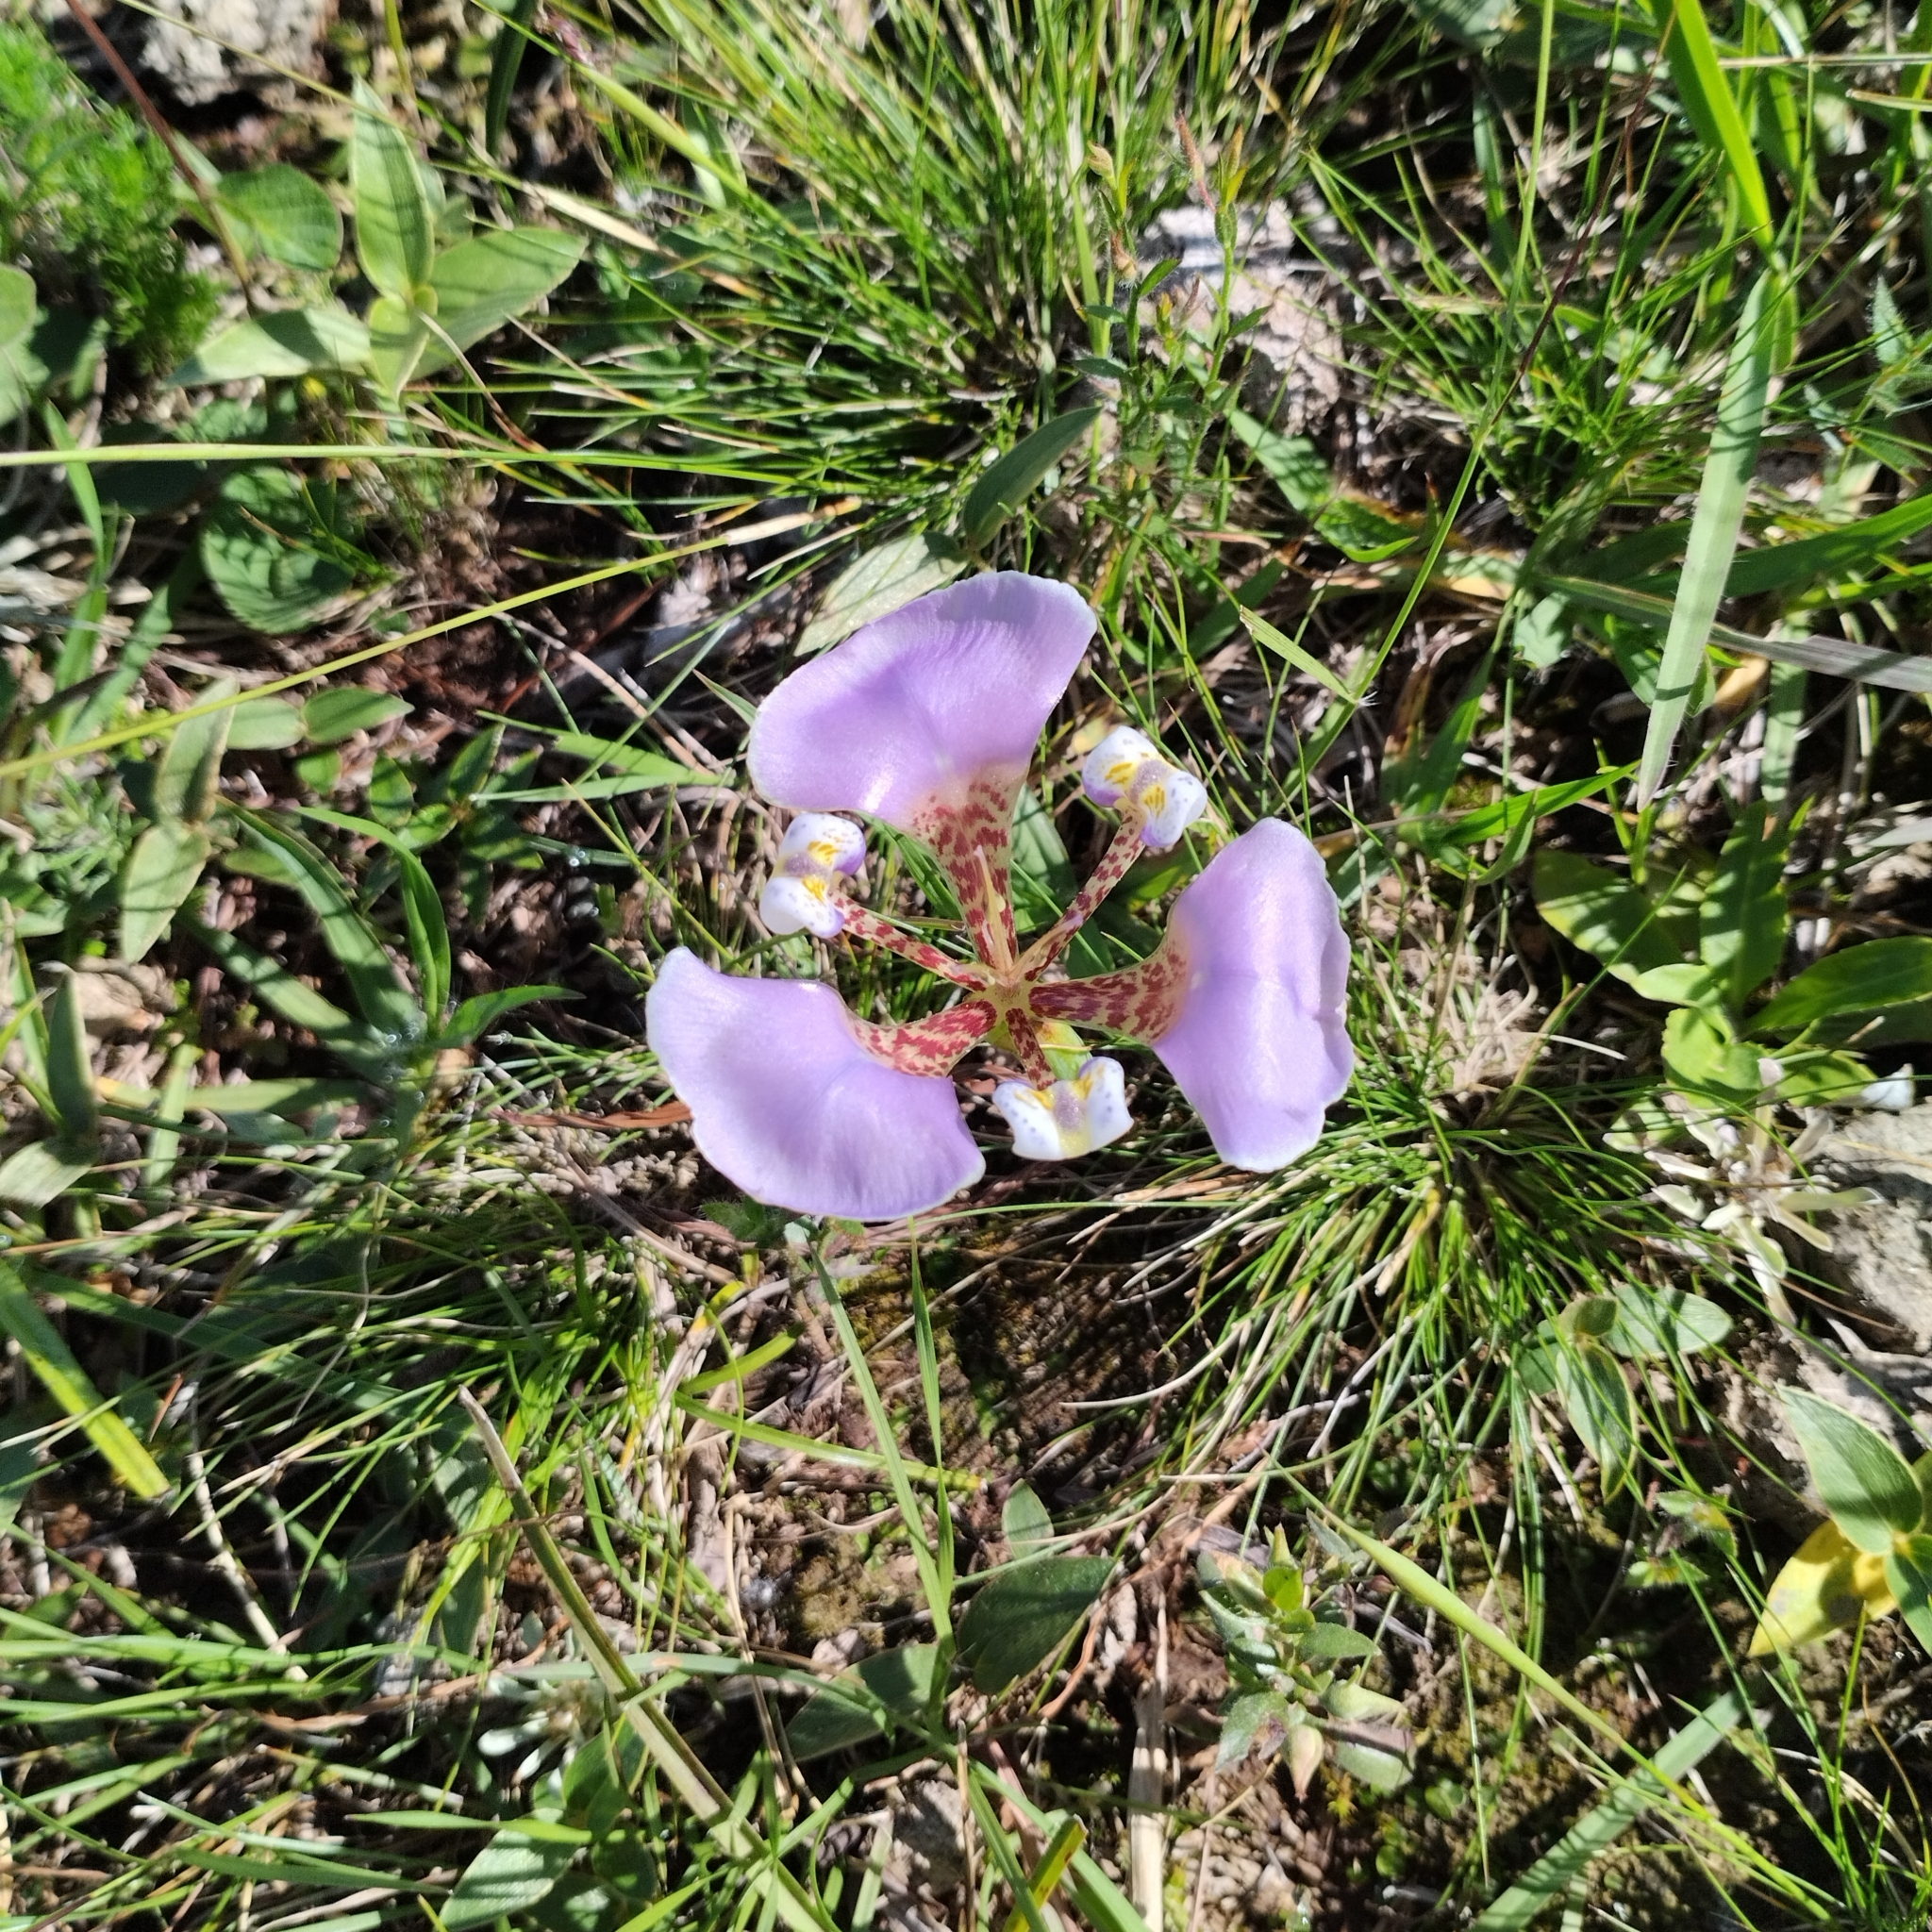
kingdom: Plantae
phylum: Tracheophyta
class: Liliopsida
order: Asparagales
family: Iridaceae
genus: Cypella
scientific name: Cypella unguiculata
